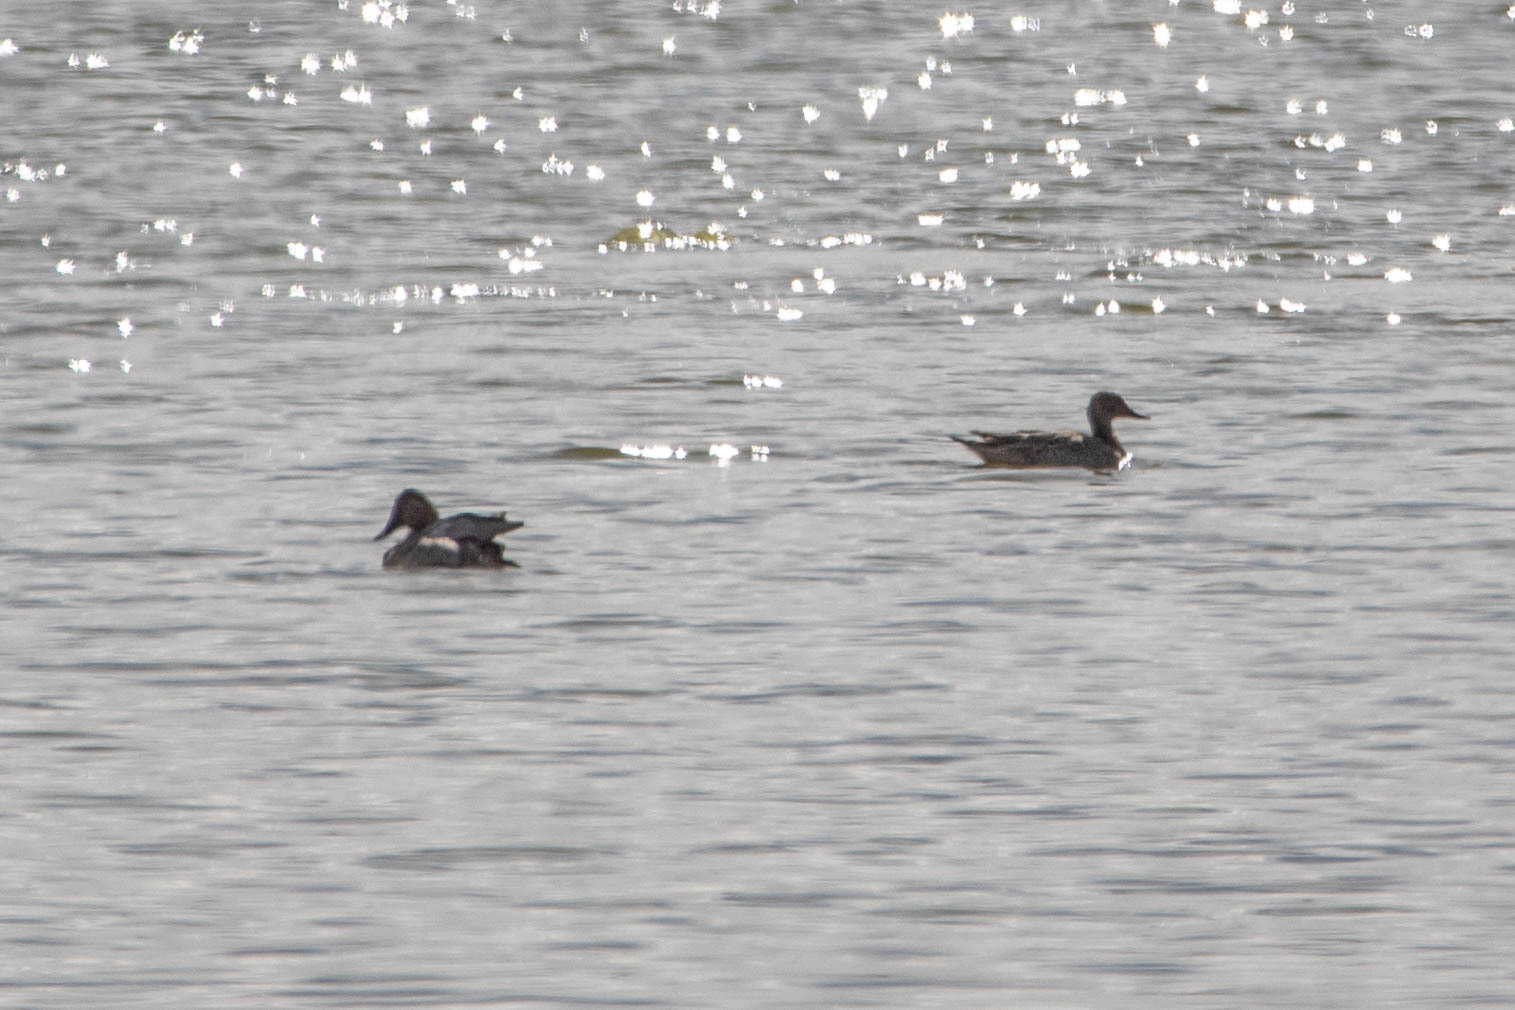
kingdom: Animalia
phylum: Chordata
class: Aves
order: Anseriformes
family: Anatidae
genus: Mareca
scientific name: Mareca strepera
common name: Gadwall
